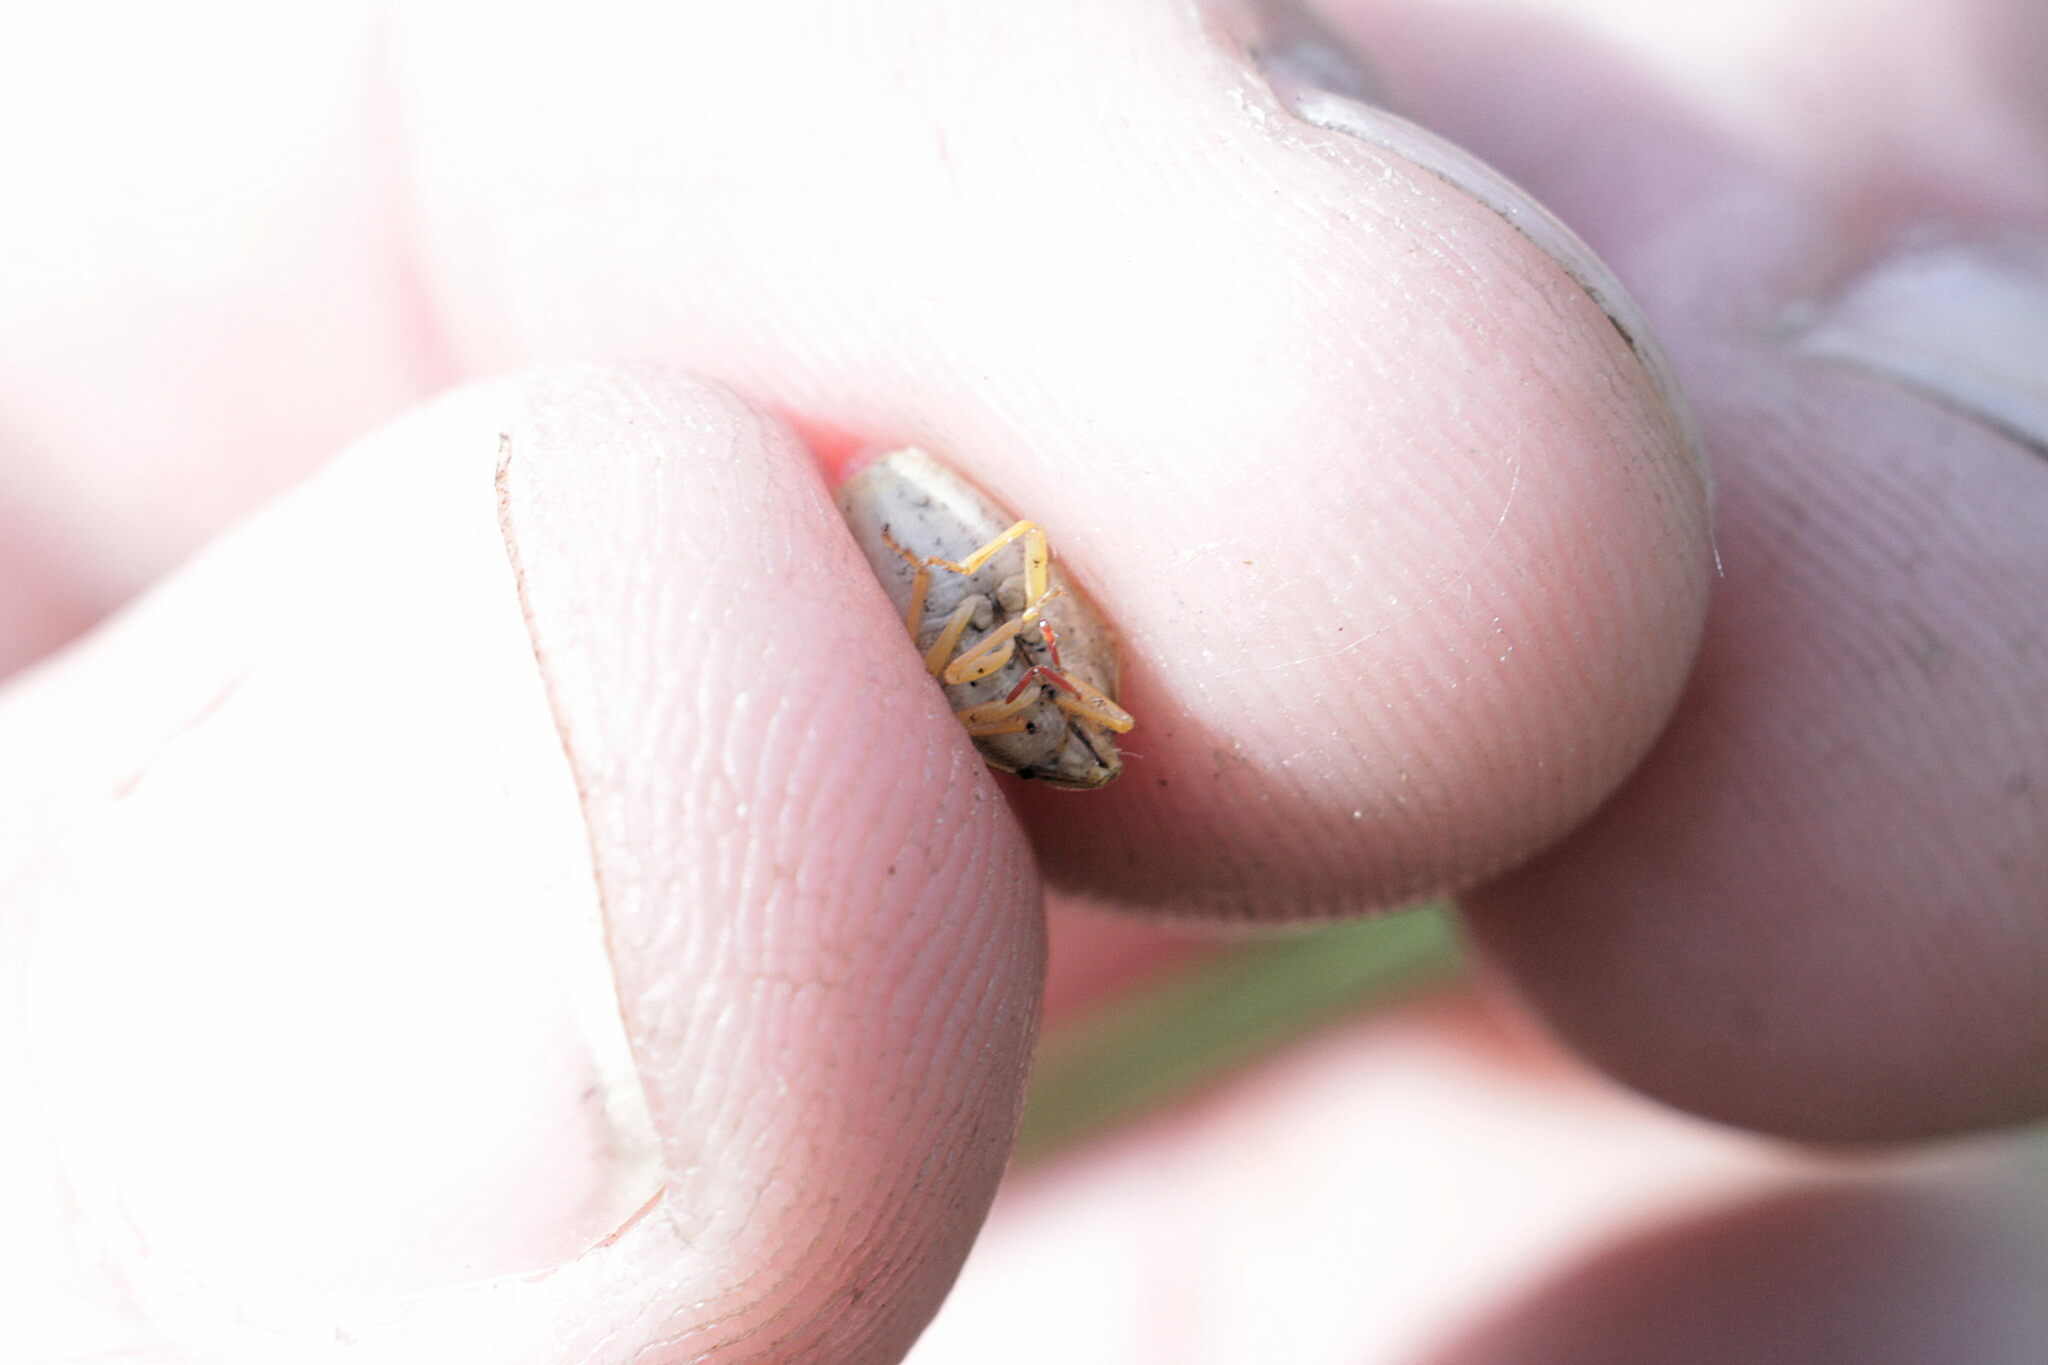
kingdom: Animalia
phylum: Arthropoda
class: Insecta
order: Hemiptera
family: Pentatomidae
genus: Aelia
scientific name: Aelia acuminata
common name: Bishop's mitre
